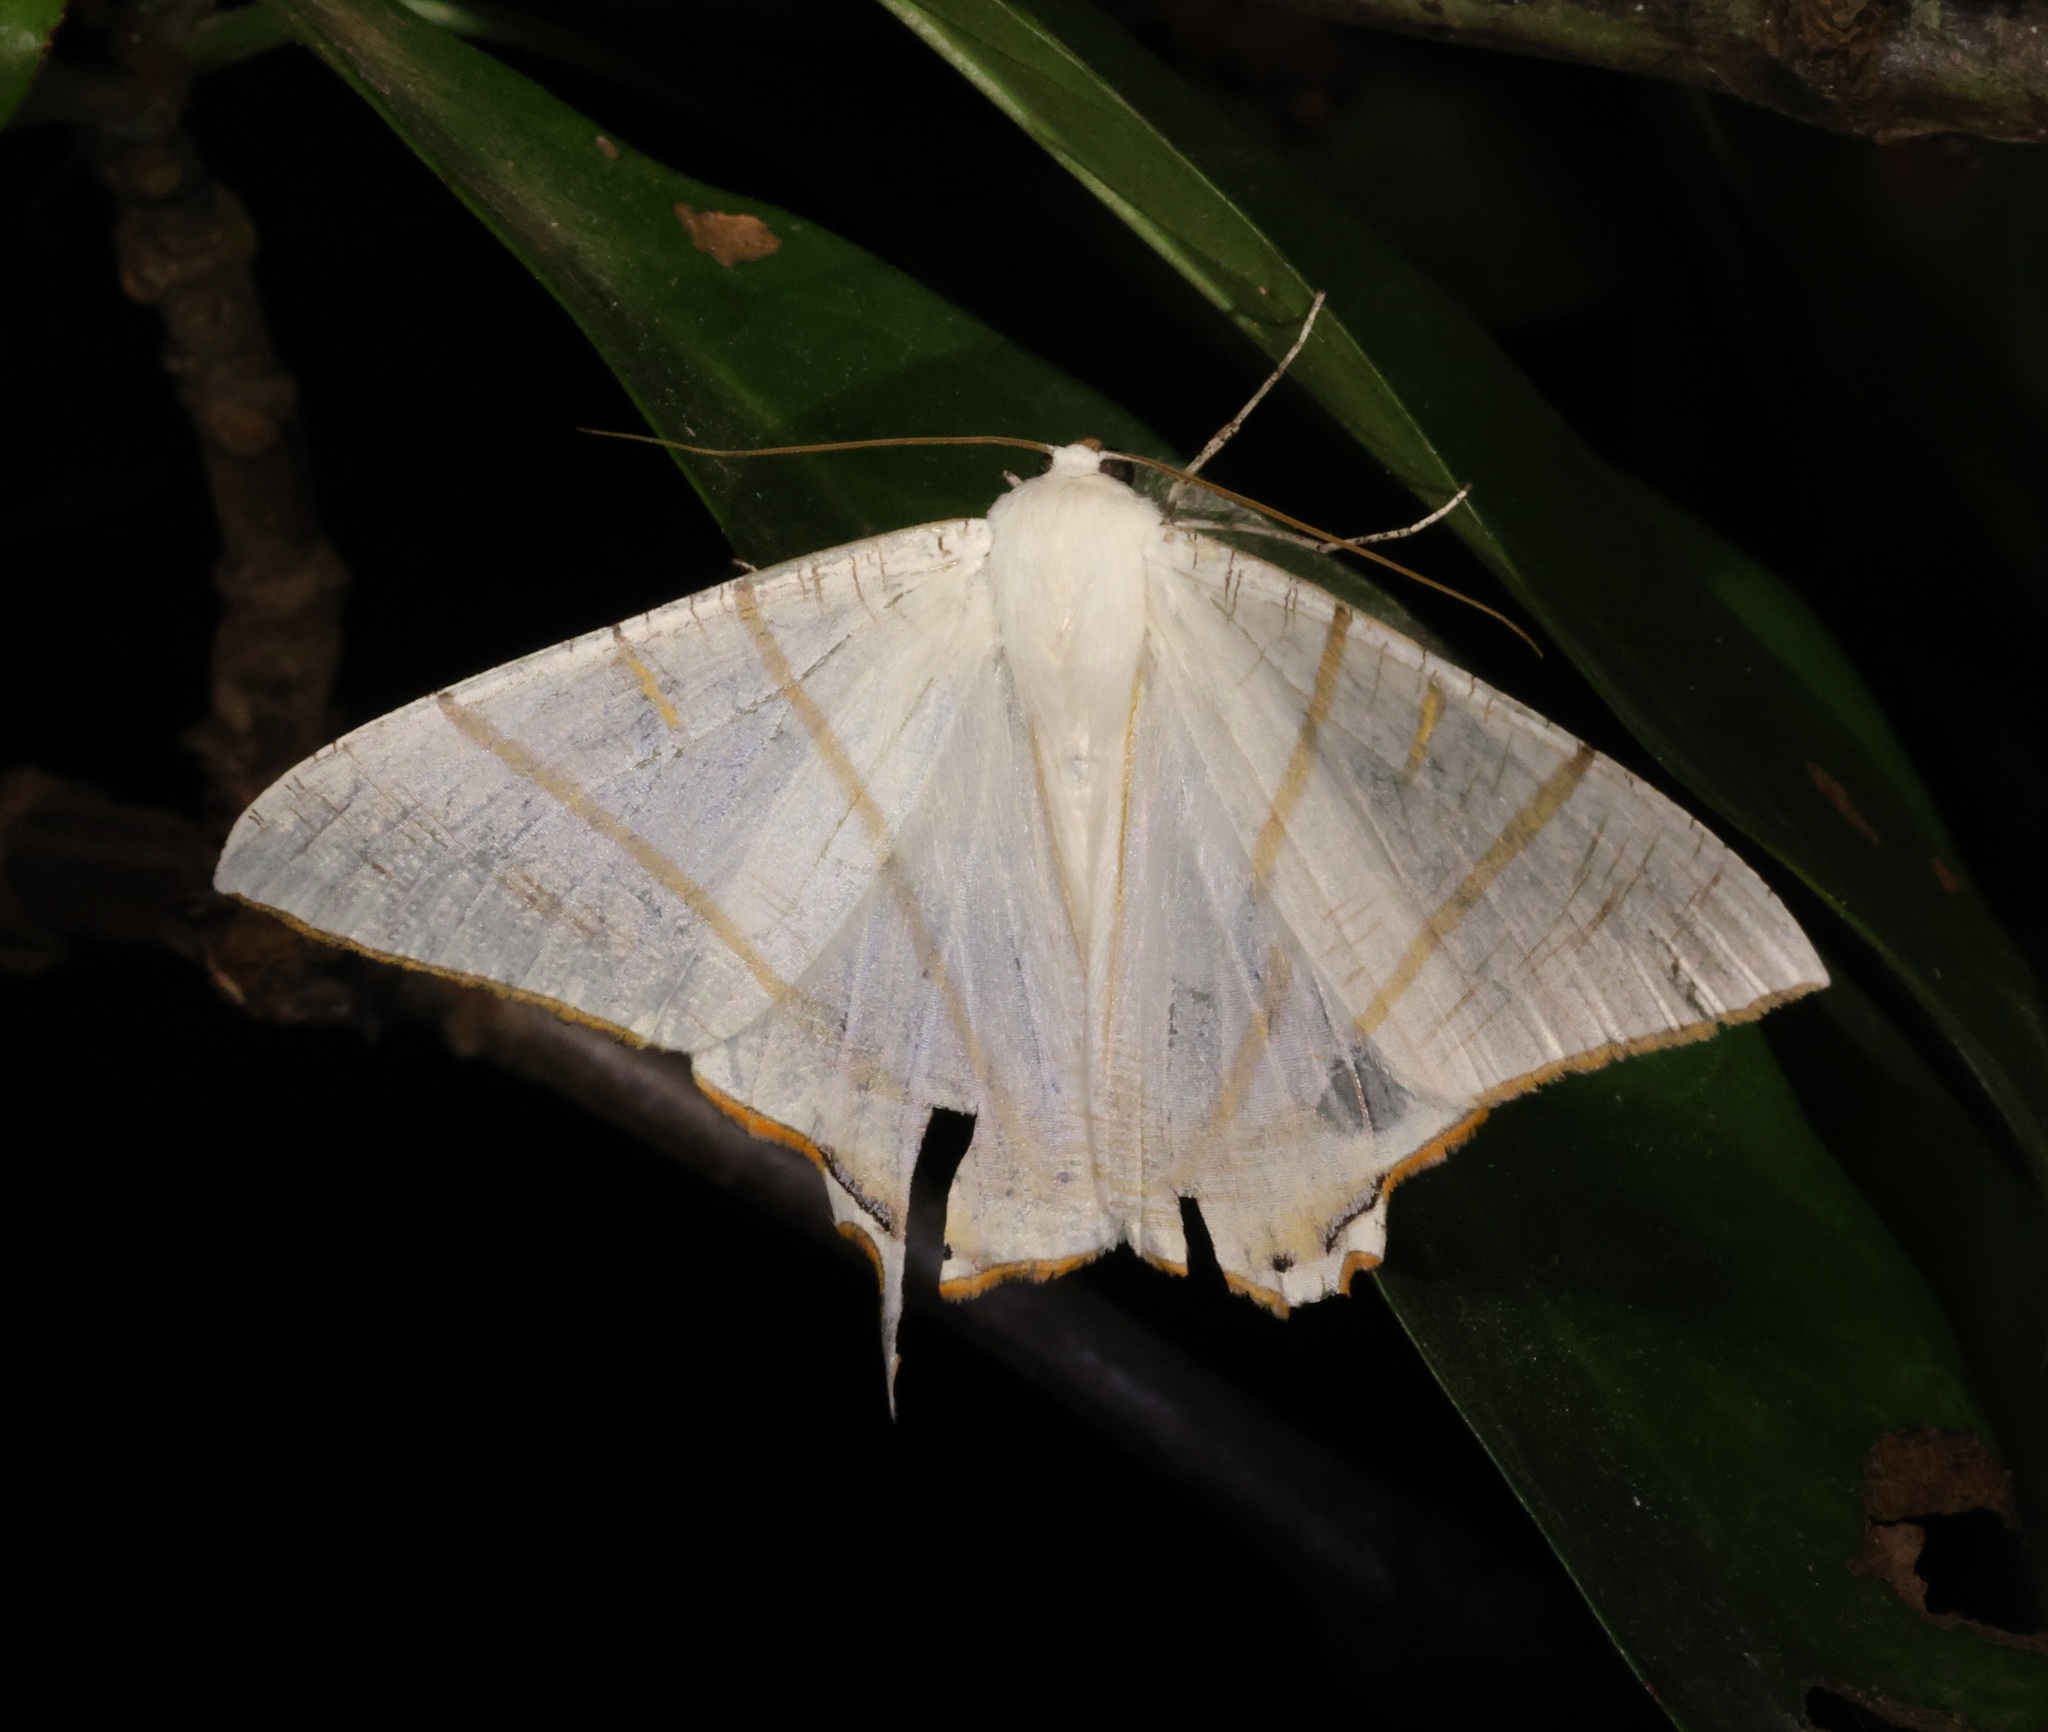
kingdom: Animalia
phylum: Arthropoda
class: Insecta
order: Lepidoptera
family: Geometridae
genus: Ourapteryx
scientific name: Ourapteryx clara
